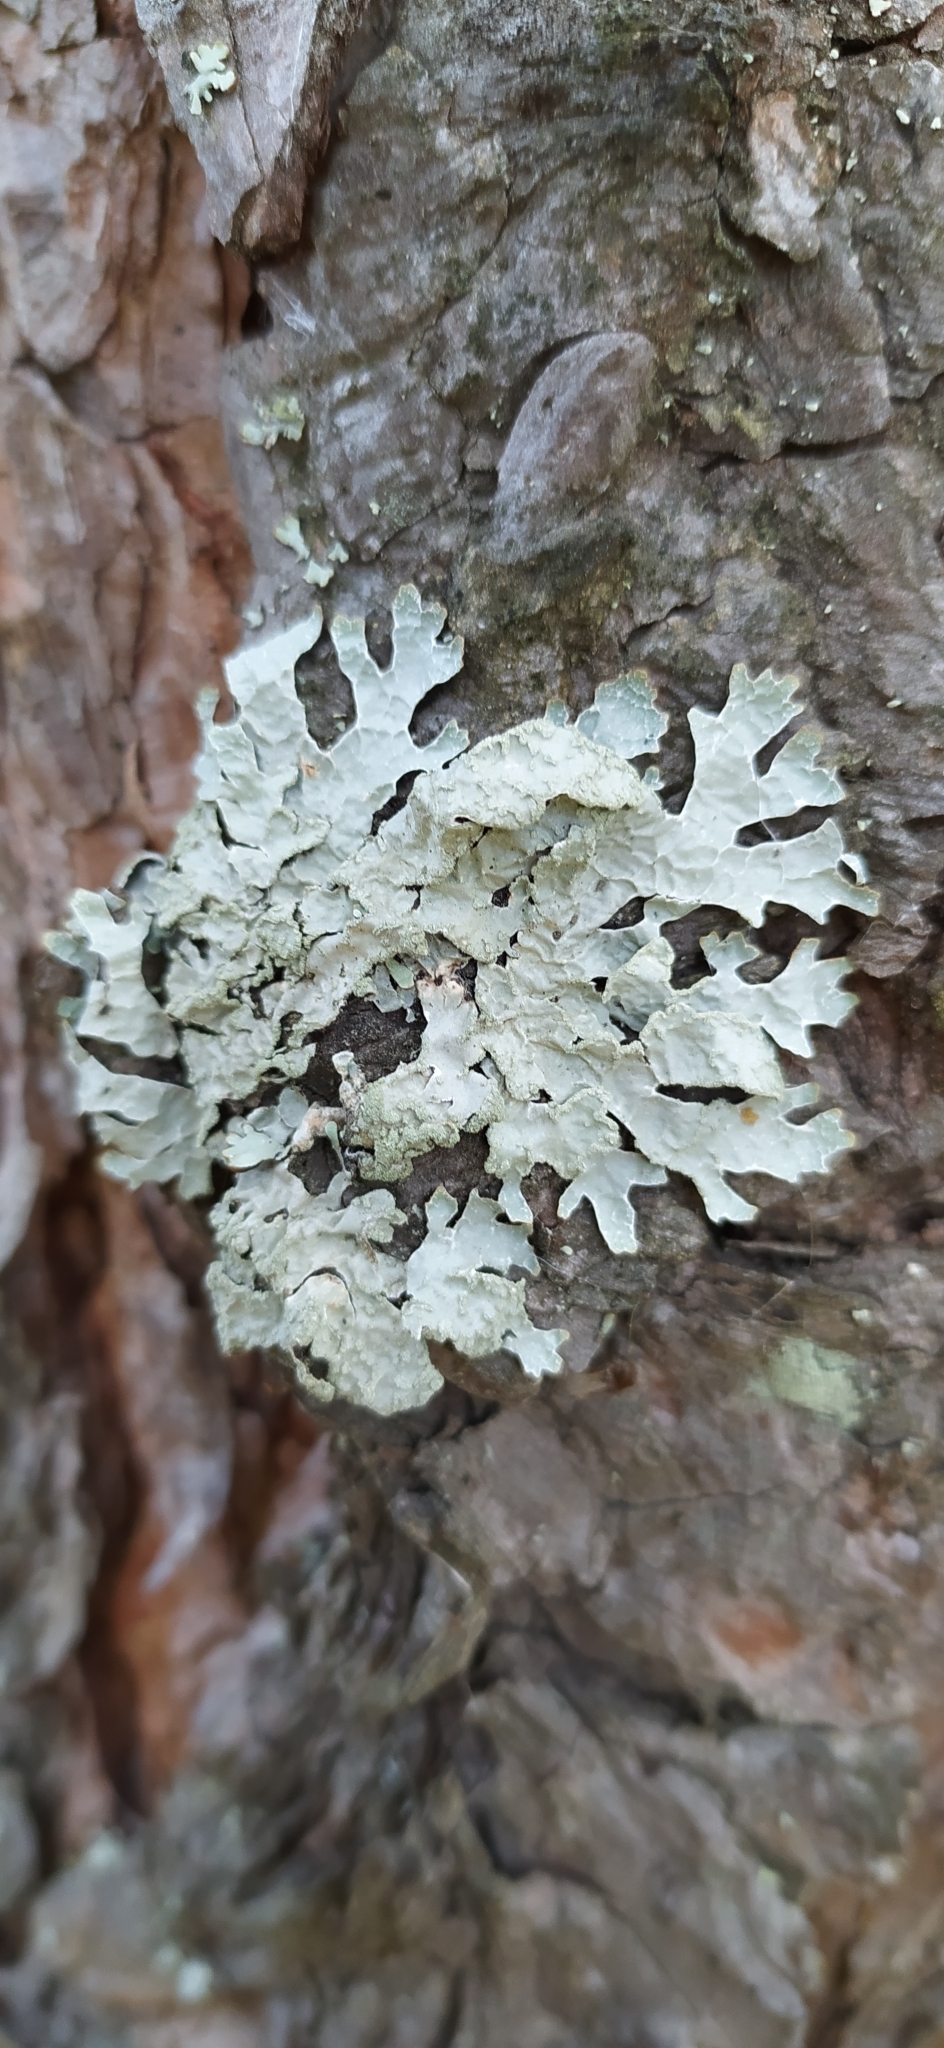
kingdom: Fungi
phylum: Ascomycota
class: Lecanoromycetes
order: Lecanorales
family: Parmeliaceae
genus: Parmelia
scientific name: Parmelia sulcata
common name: Netted shield lichen
